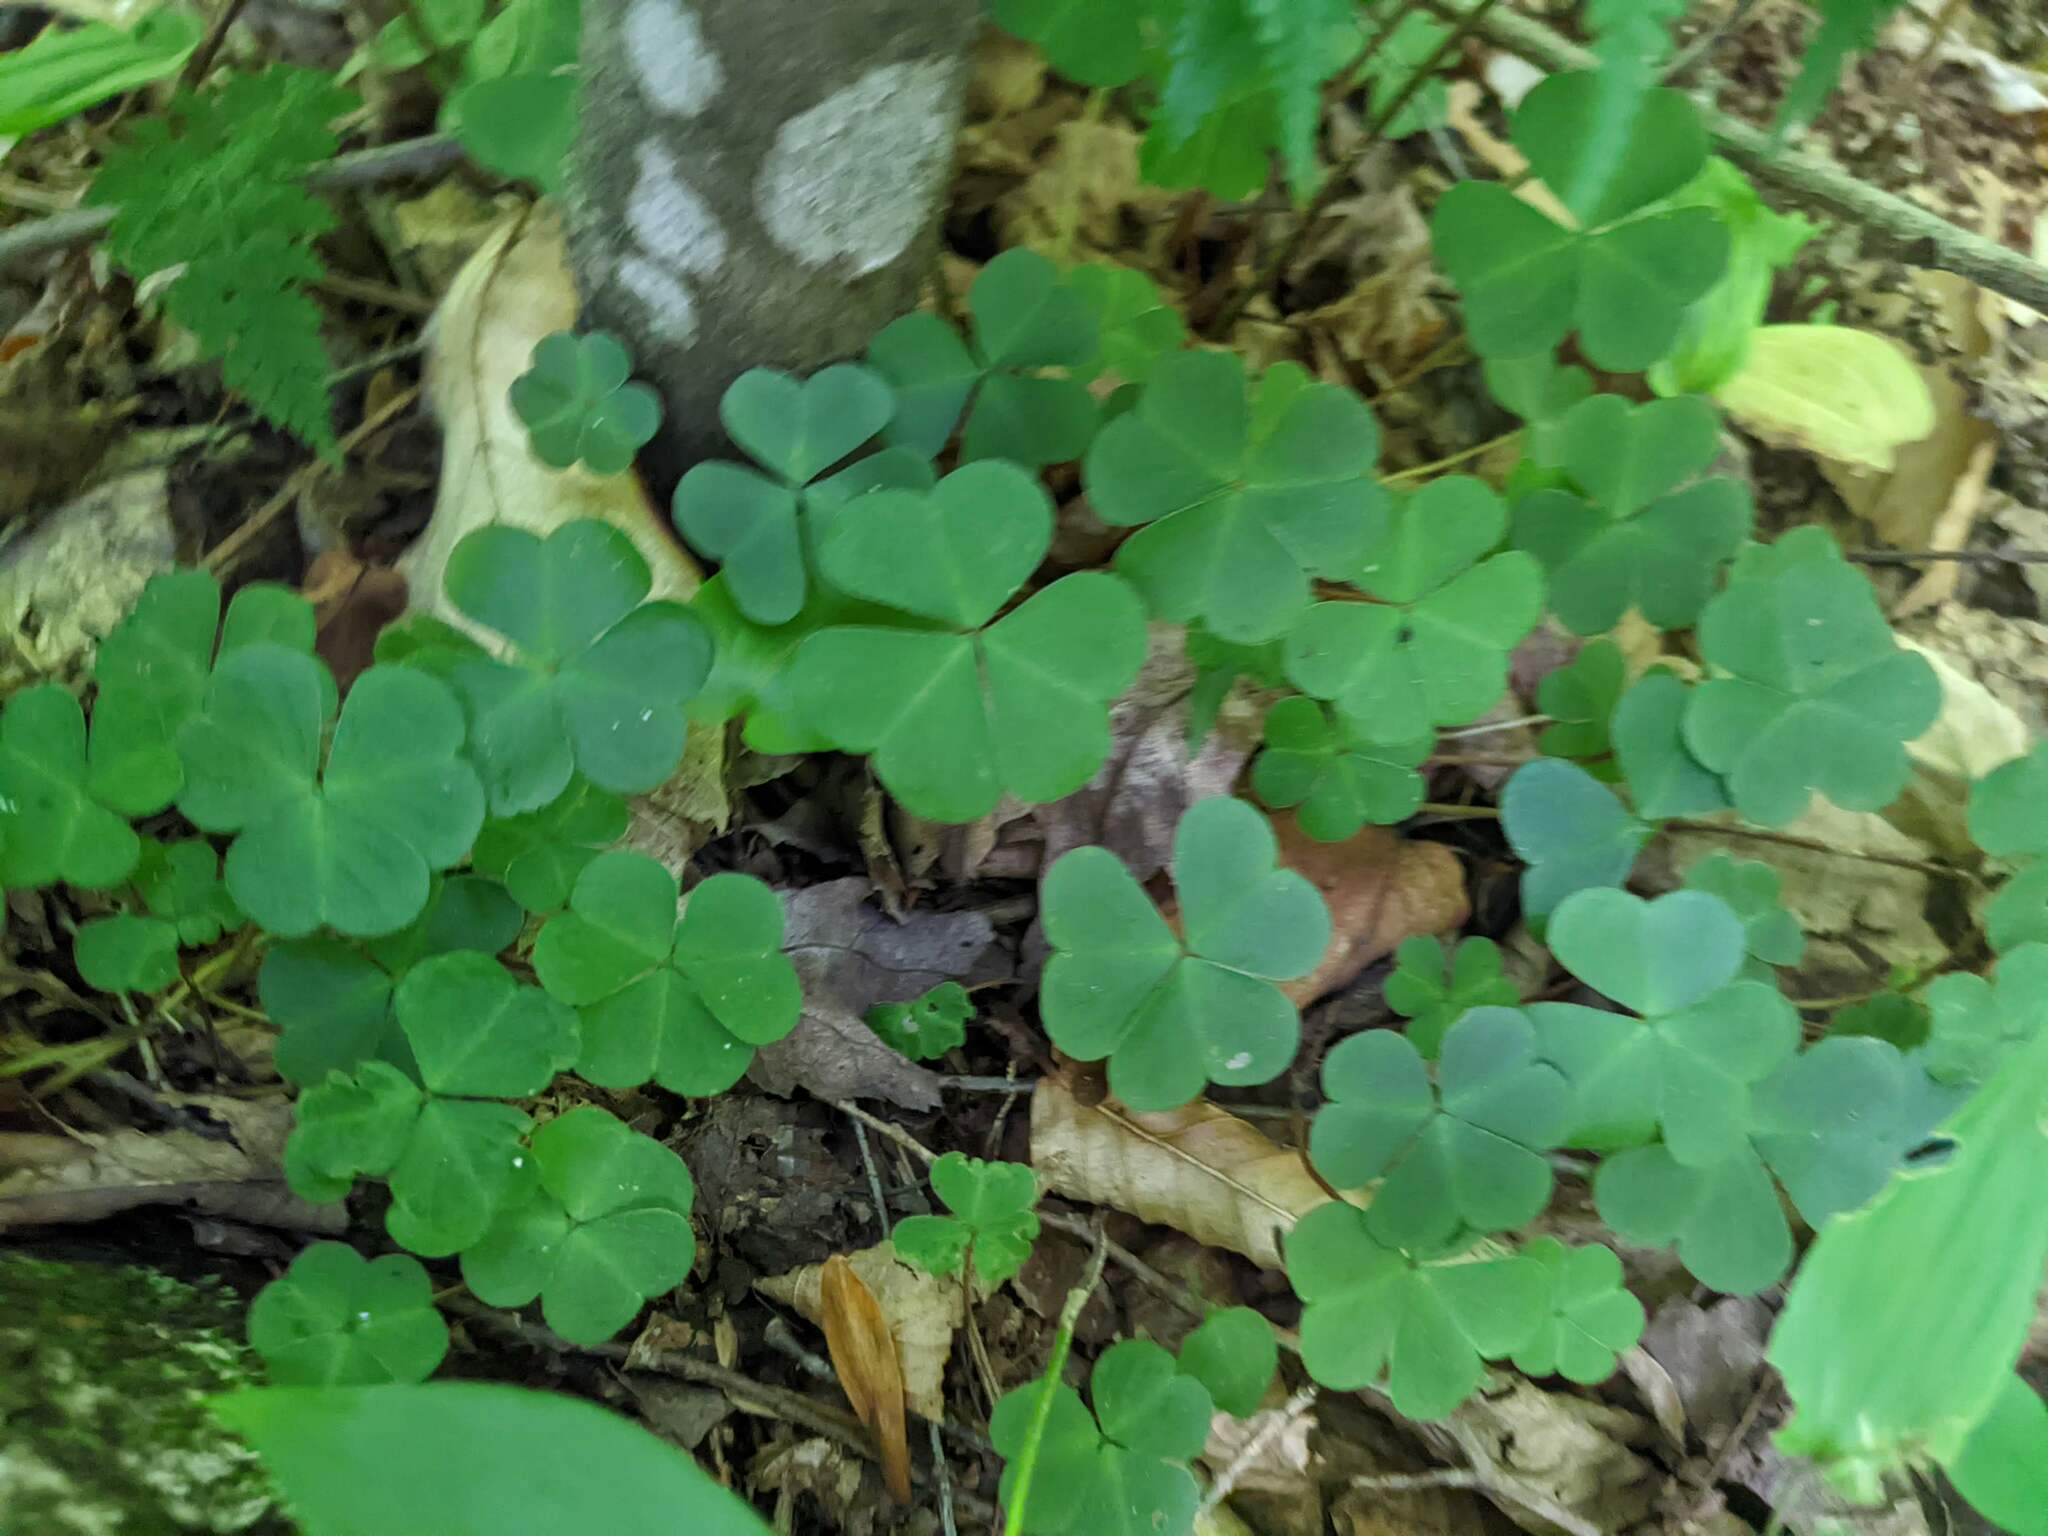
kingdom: Plantae
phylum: Tracheophyta
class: Magnoliopsida
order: Oxalidales
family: Oxalidaceae
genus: Oxalis
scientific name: Oxalis montana
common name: American wood-sorrel
